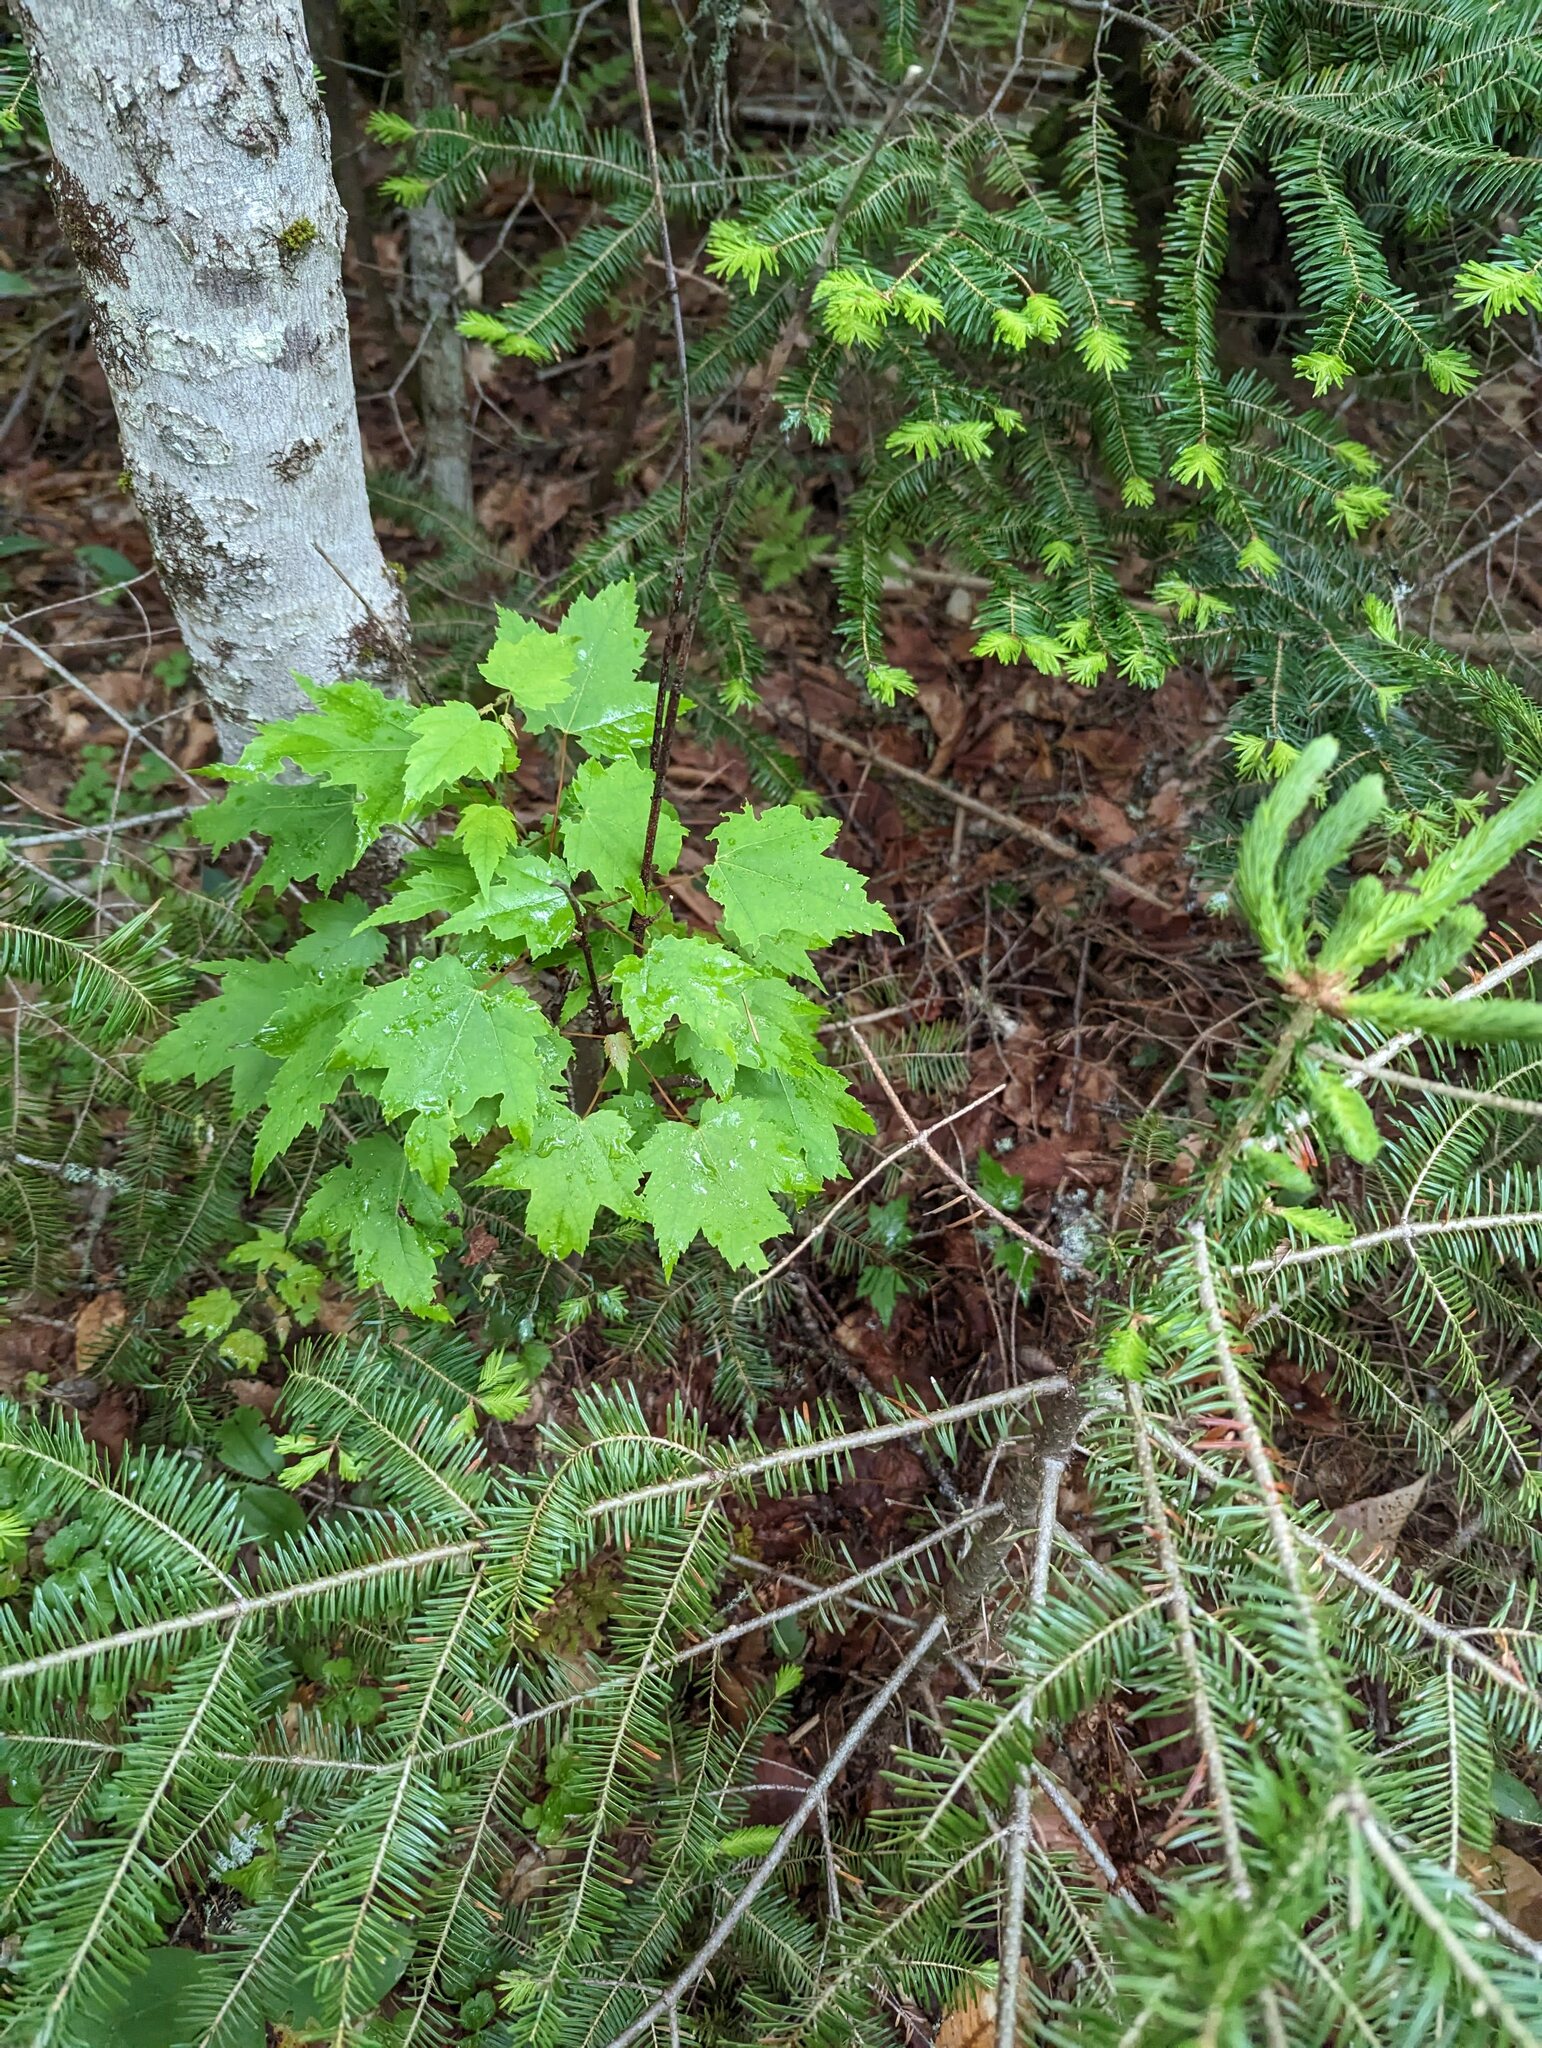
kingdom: Plantae
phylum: Tracheophyta
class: Magnoliopsida
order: Sapindales
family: Sapindaceae
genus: Acer
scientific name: Acer rubrum
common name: Red maple
